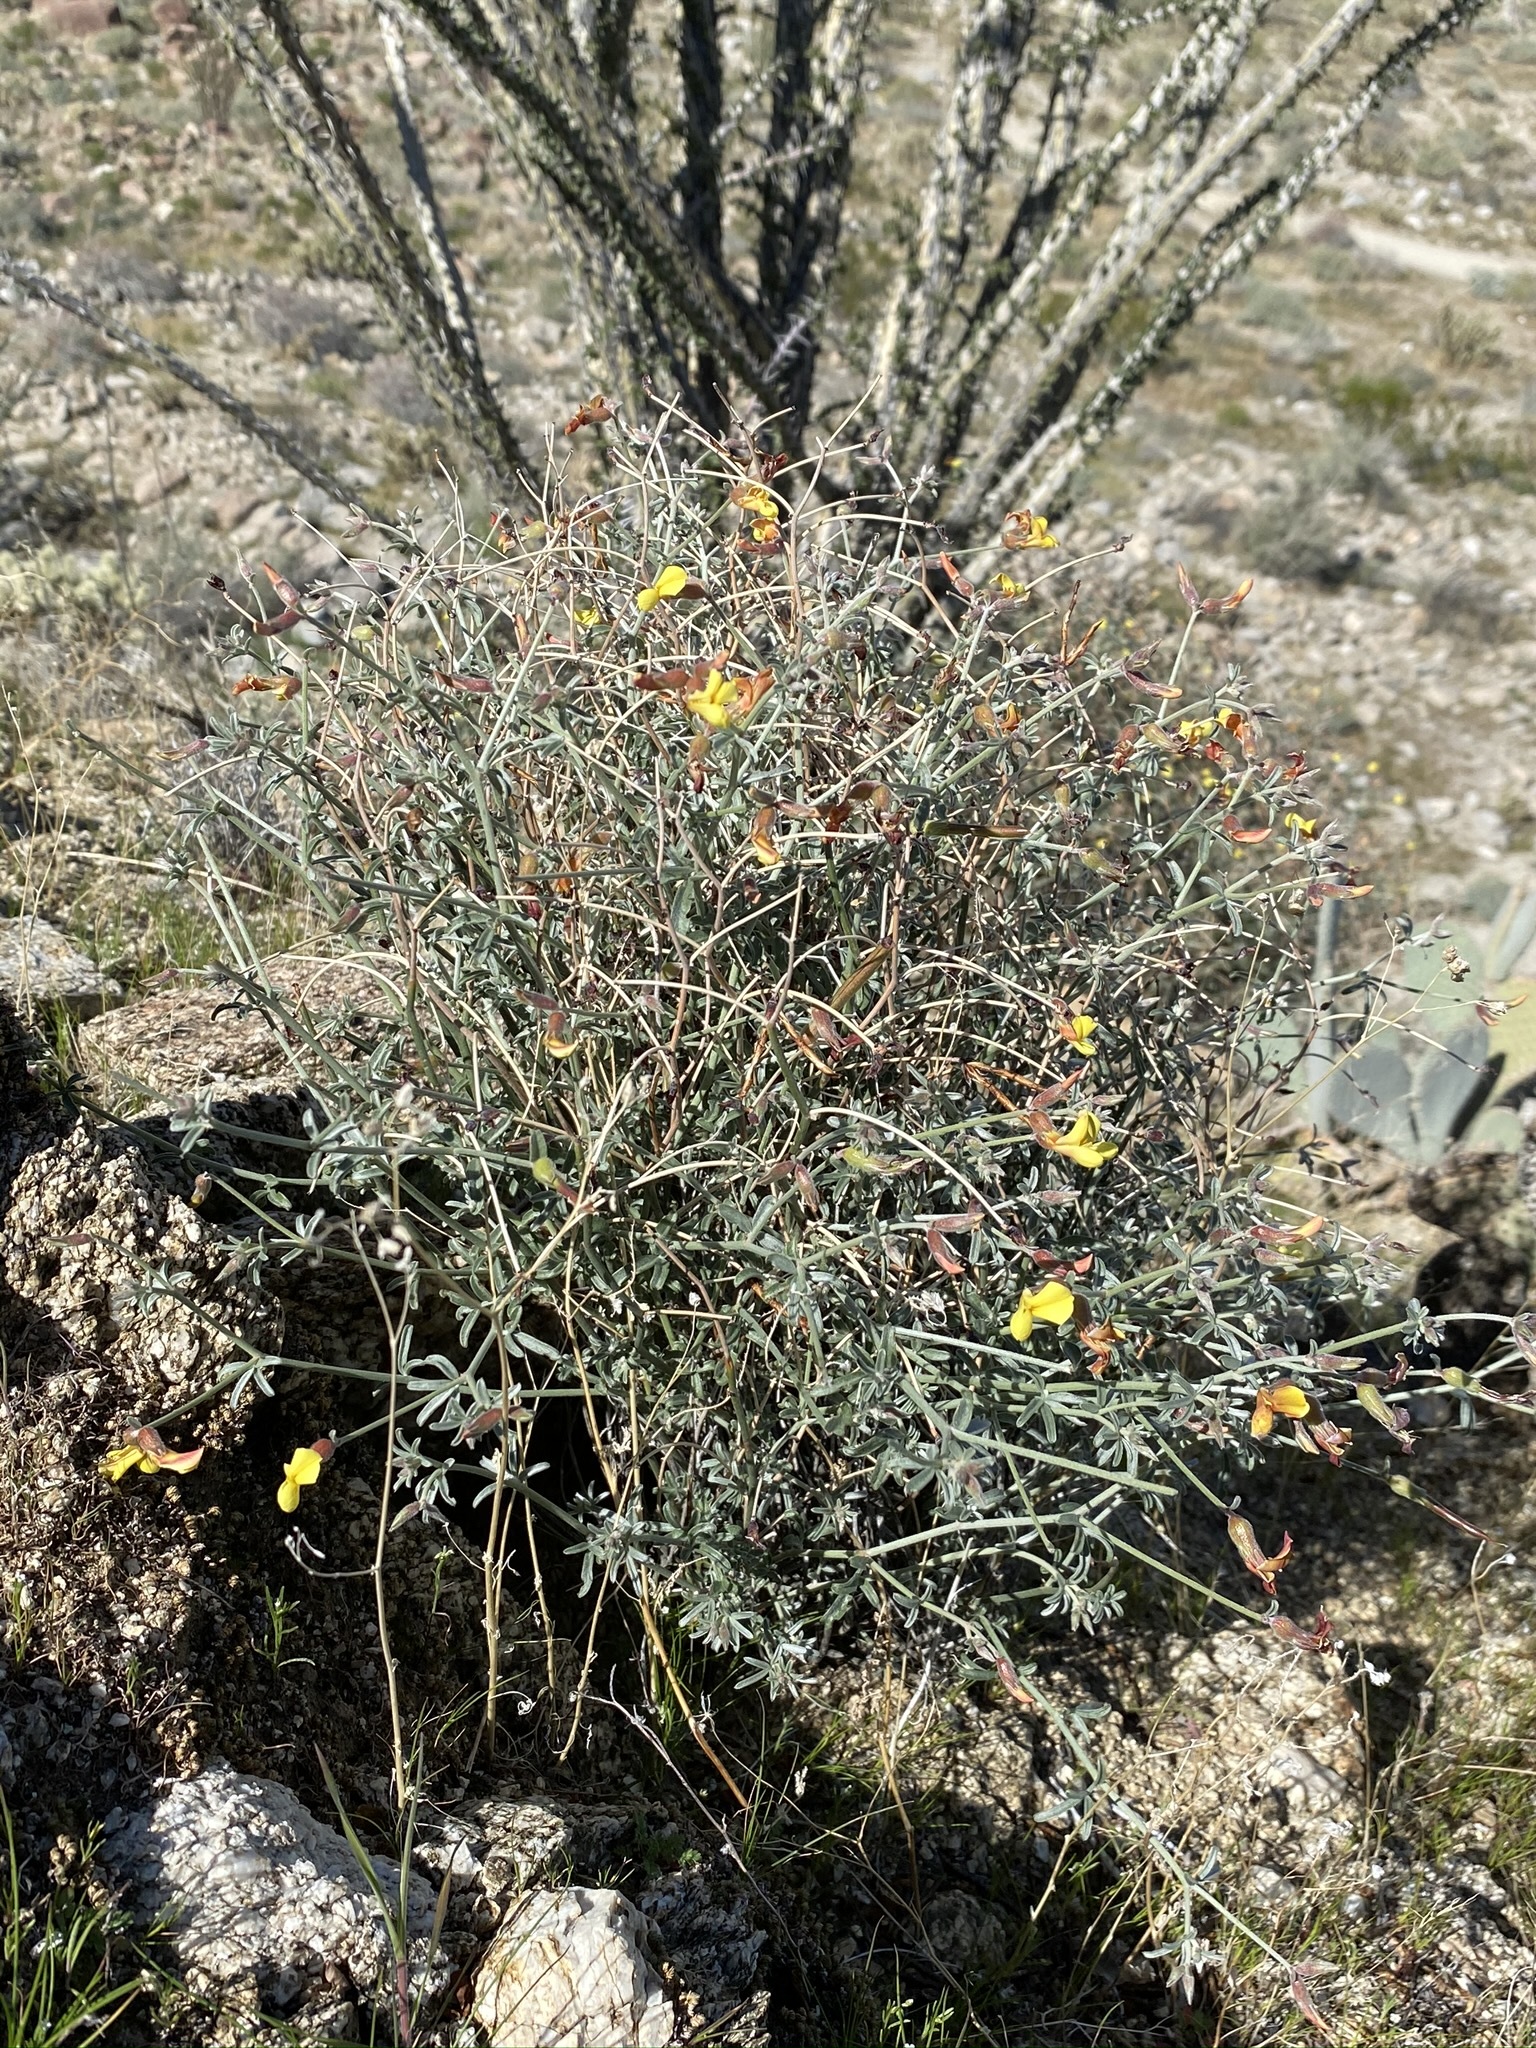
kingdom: Plantae
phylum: Tracheophyta
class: Magnoliopsida
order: Fabales
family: Fabaceae
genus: Acmispon
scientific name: Acmispon rigidus
